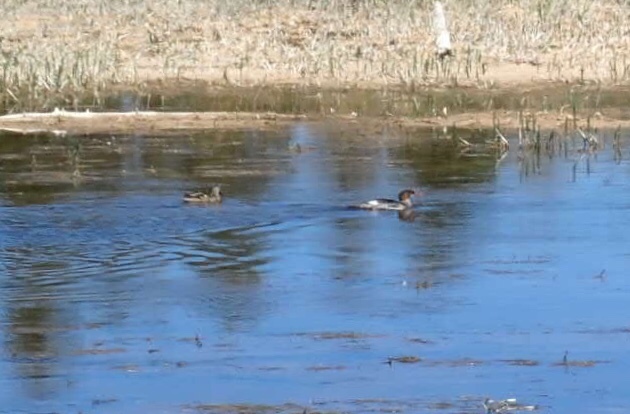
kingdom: Animalia
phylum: Chordata
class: Aves
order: Anseriformes
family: Anatidae
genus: Mergus
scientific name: Mergus merganser
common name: Common merganser
